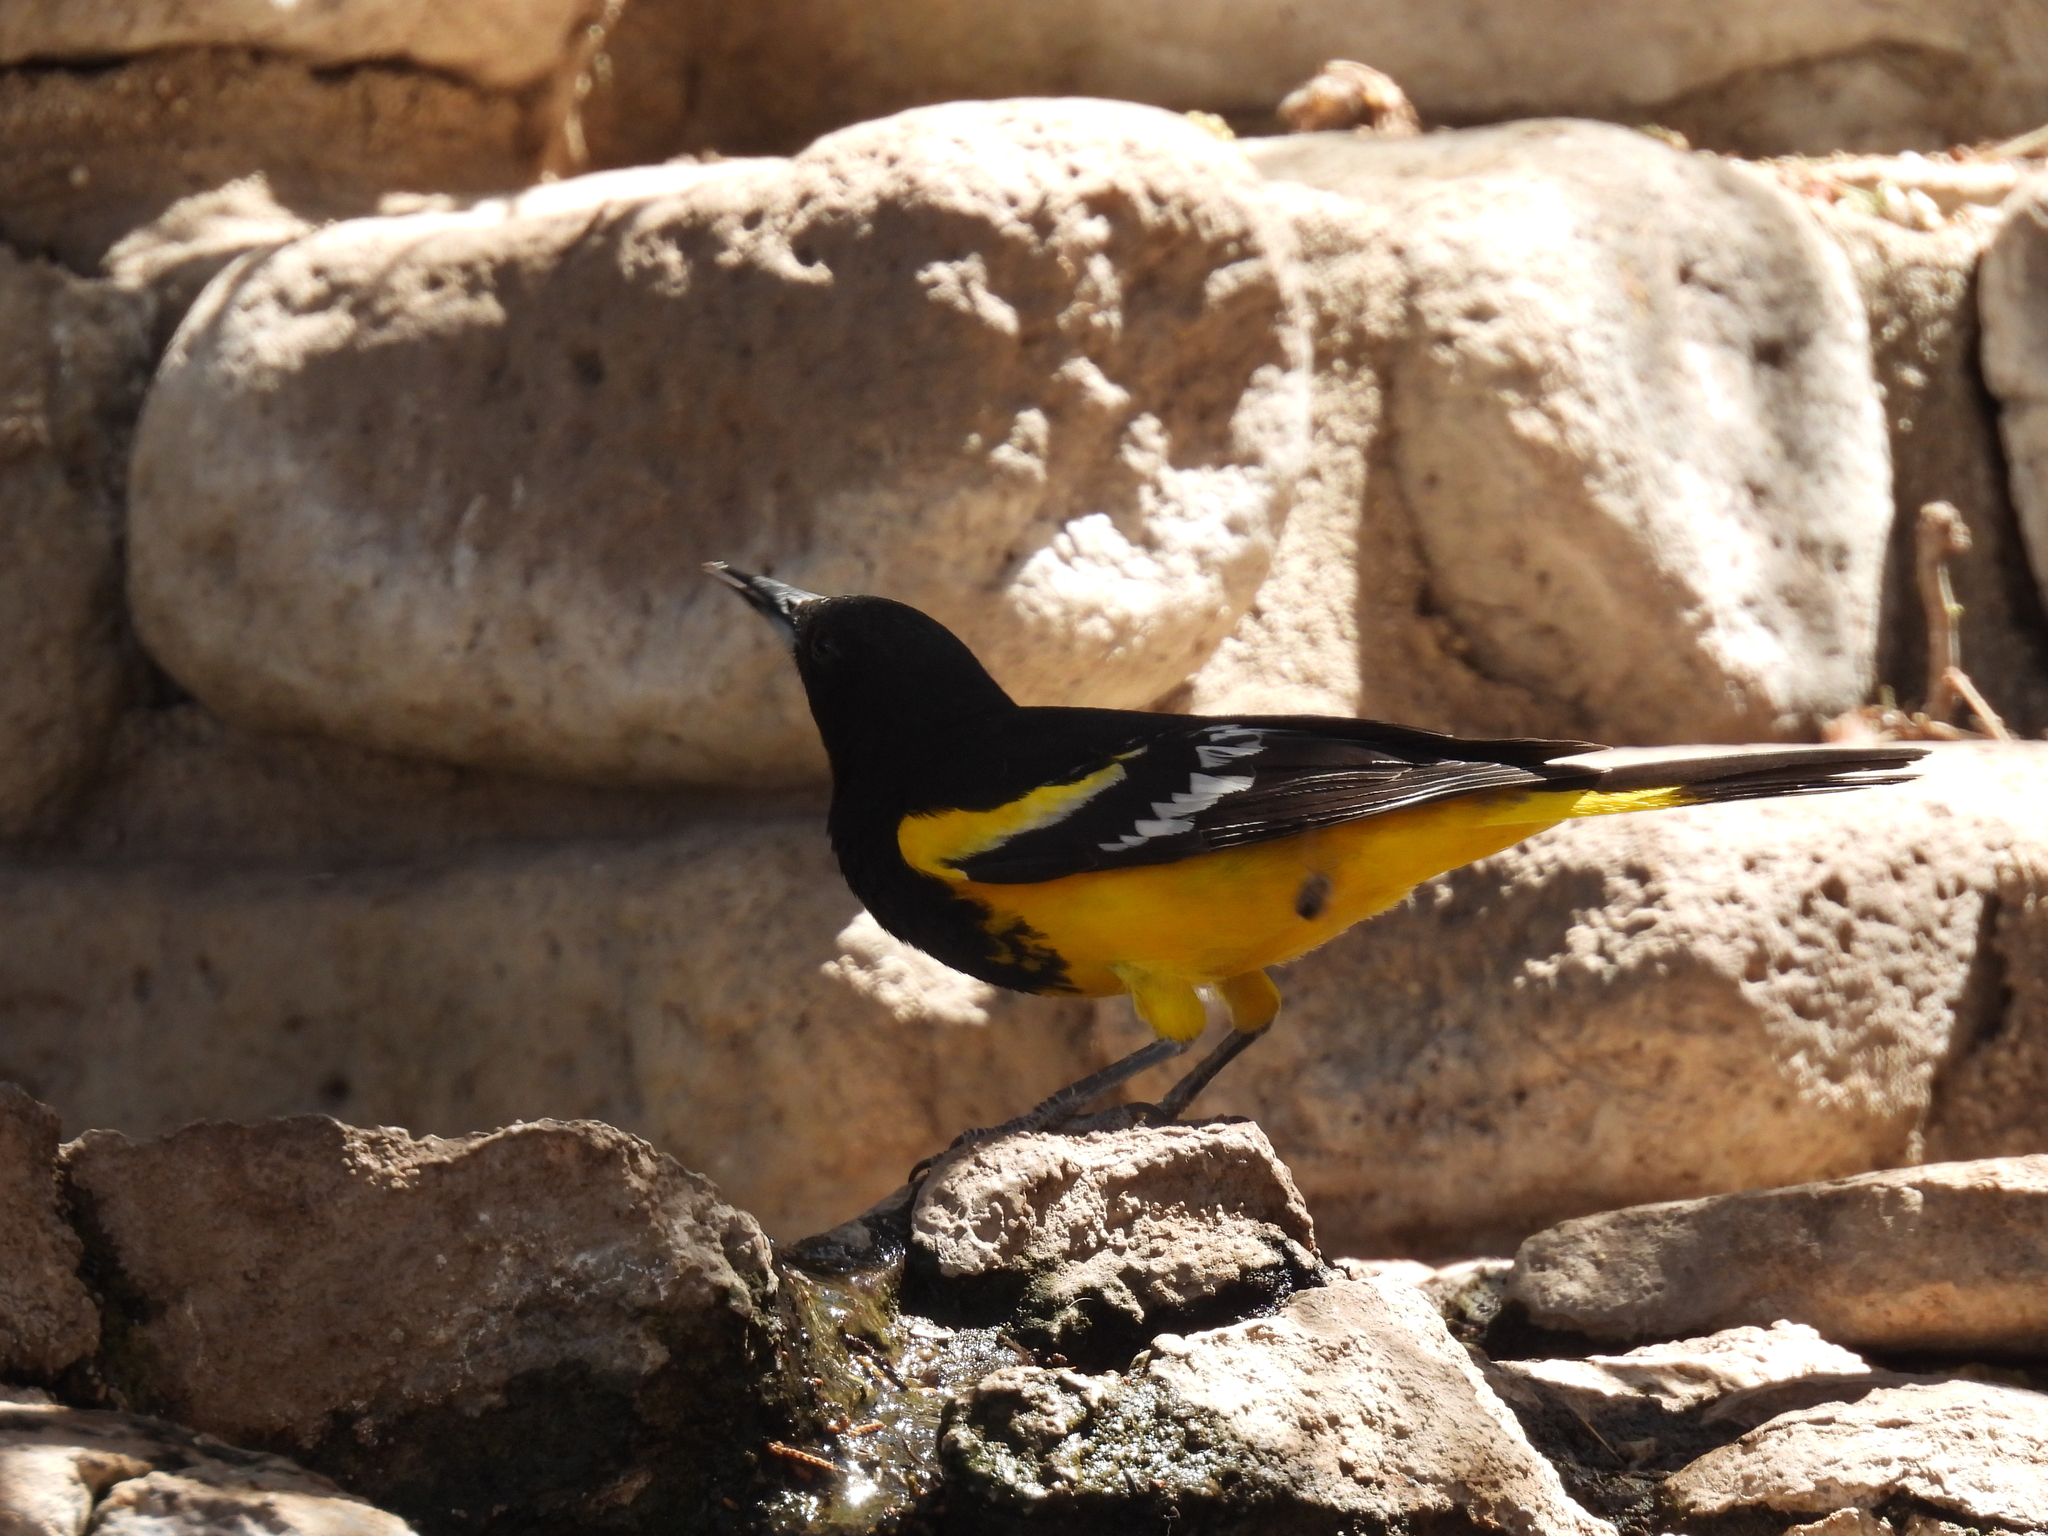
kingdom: Animalia
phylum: Chordata
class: Aves
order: Passeriformes
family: Icteridae
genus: Icterus
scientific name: Icterus parisorum
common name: Scott's oriole
